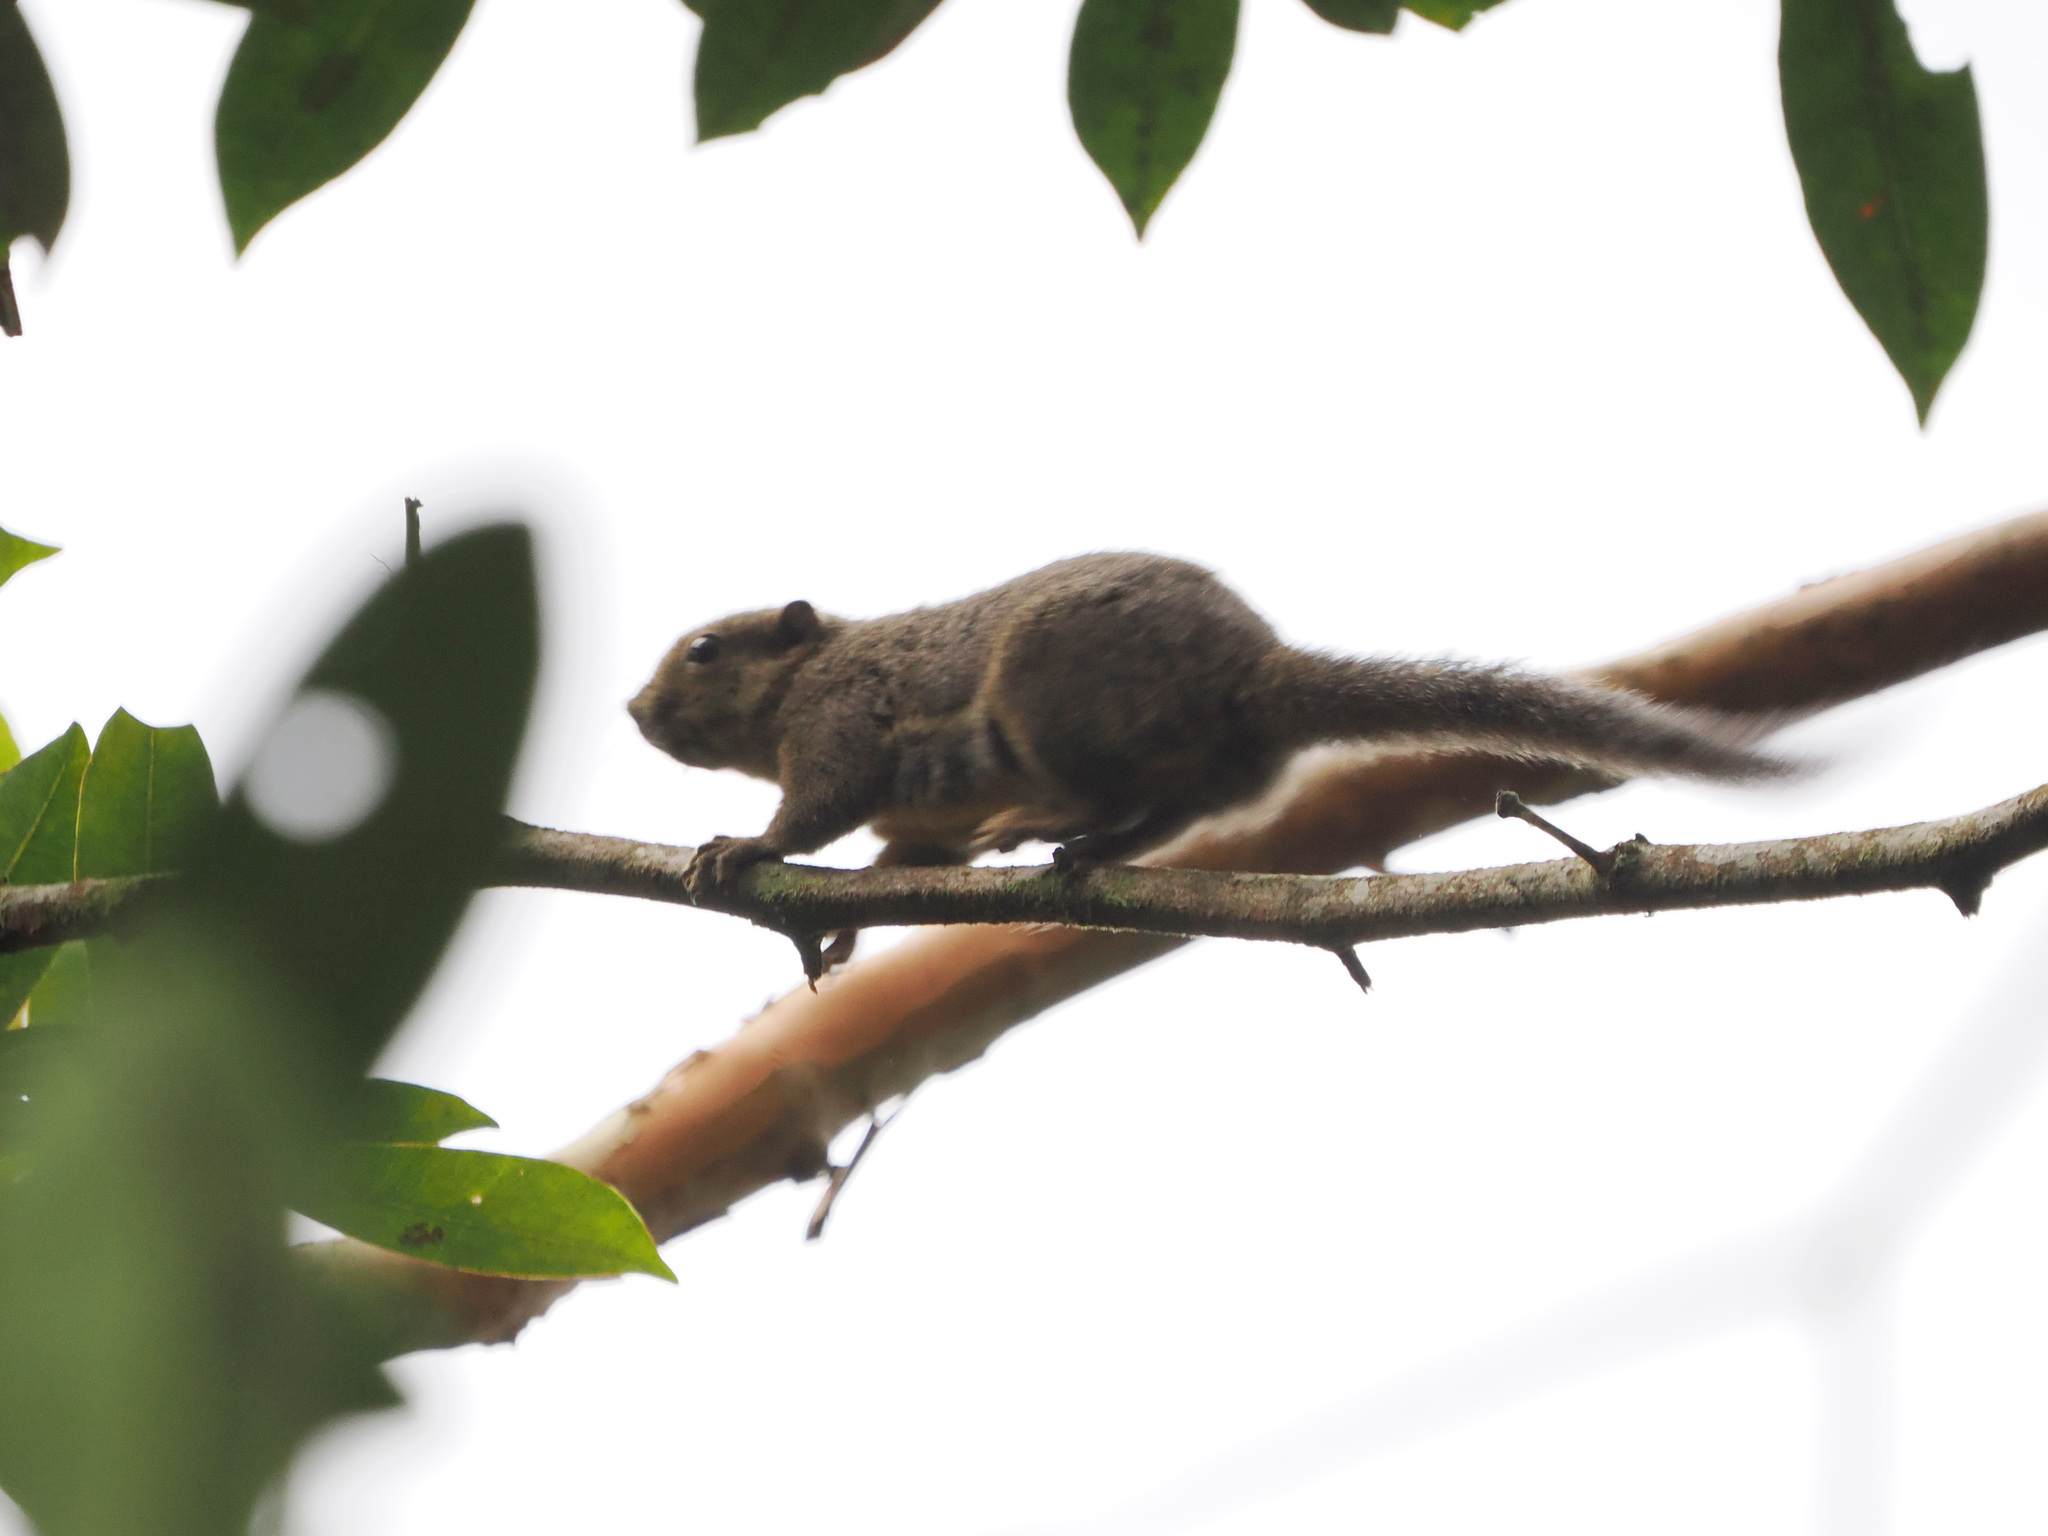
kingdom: Animalia
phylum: Chordata
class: Mammalia
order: Rodentia
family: Sciuridae
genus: Callosciurus
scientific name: Callosciurus notatus
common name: Plantain squirrel
